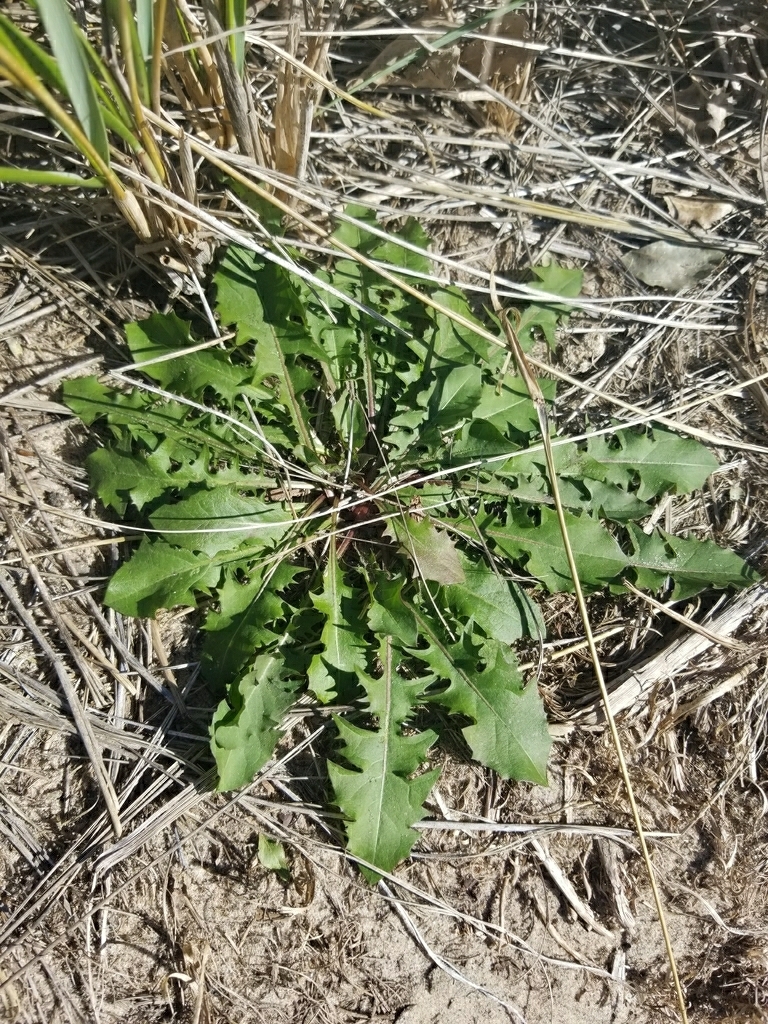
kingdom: Plantae
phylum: Tracheophyta
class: Magnoliopsida
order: Asterales
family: Asteraceae
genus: Taraxacum
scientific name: Taraxacum officinale
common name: Common dandelion
